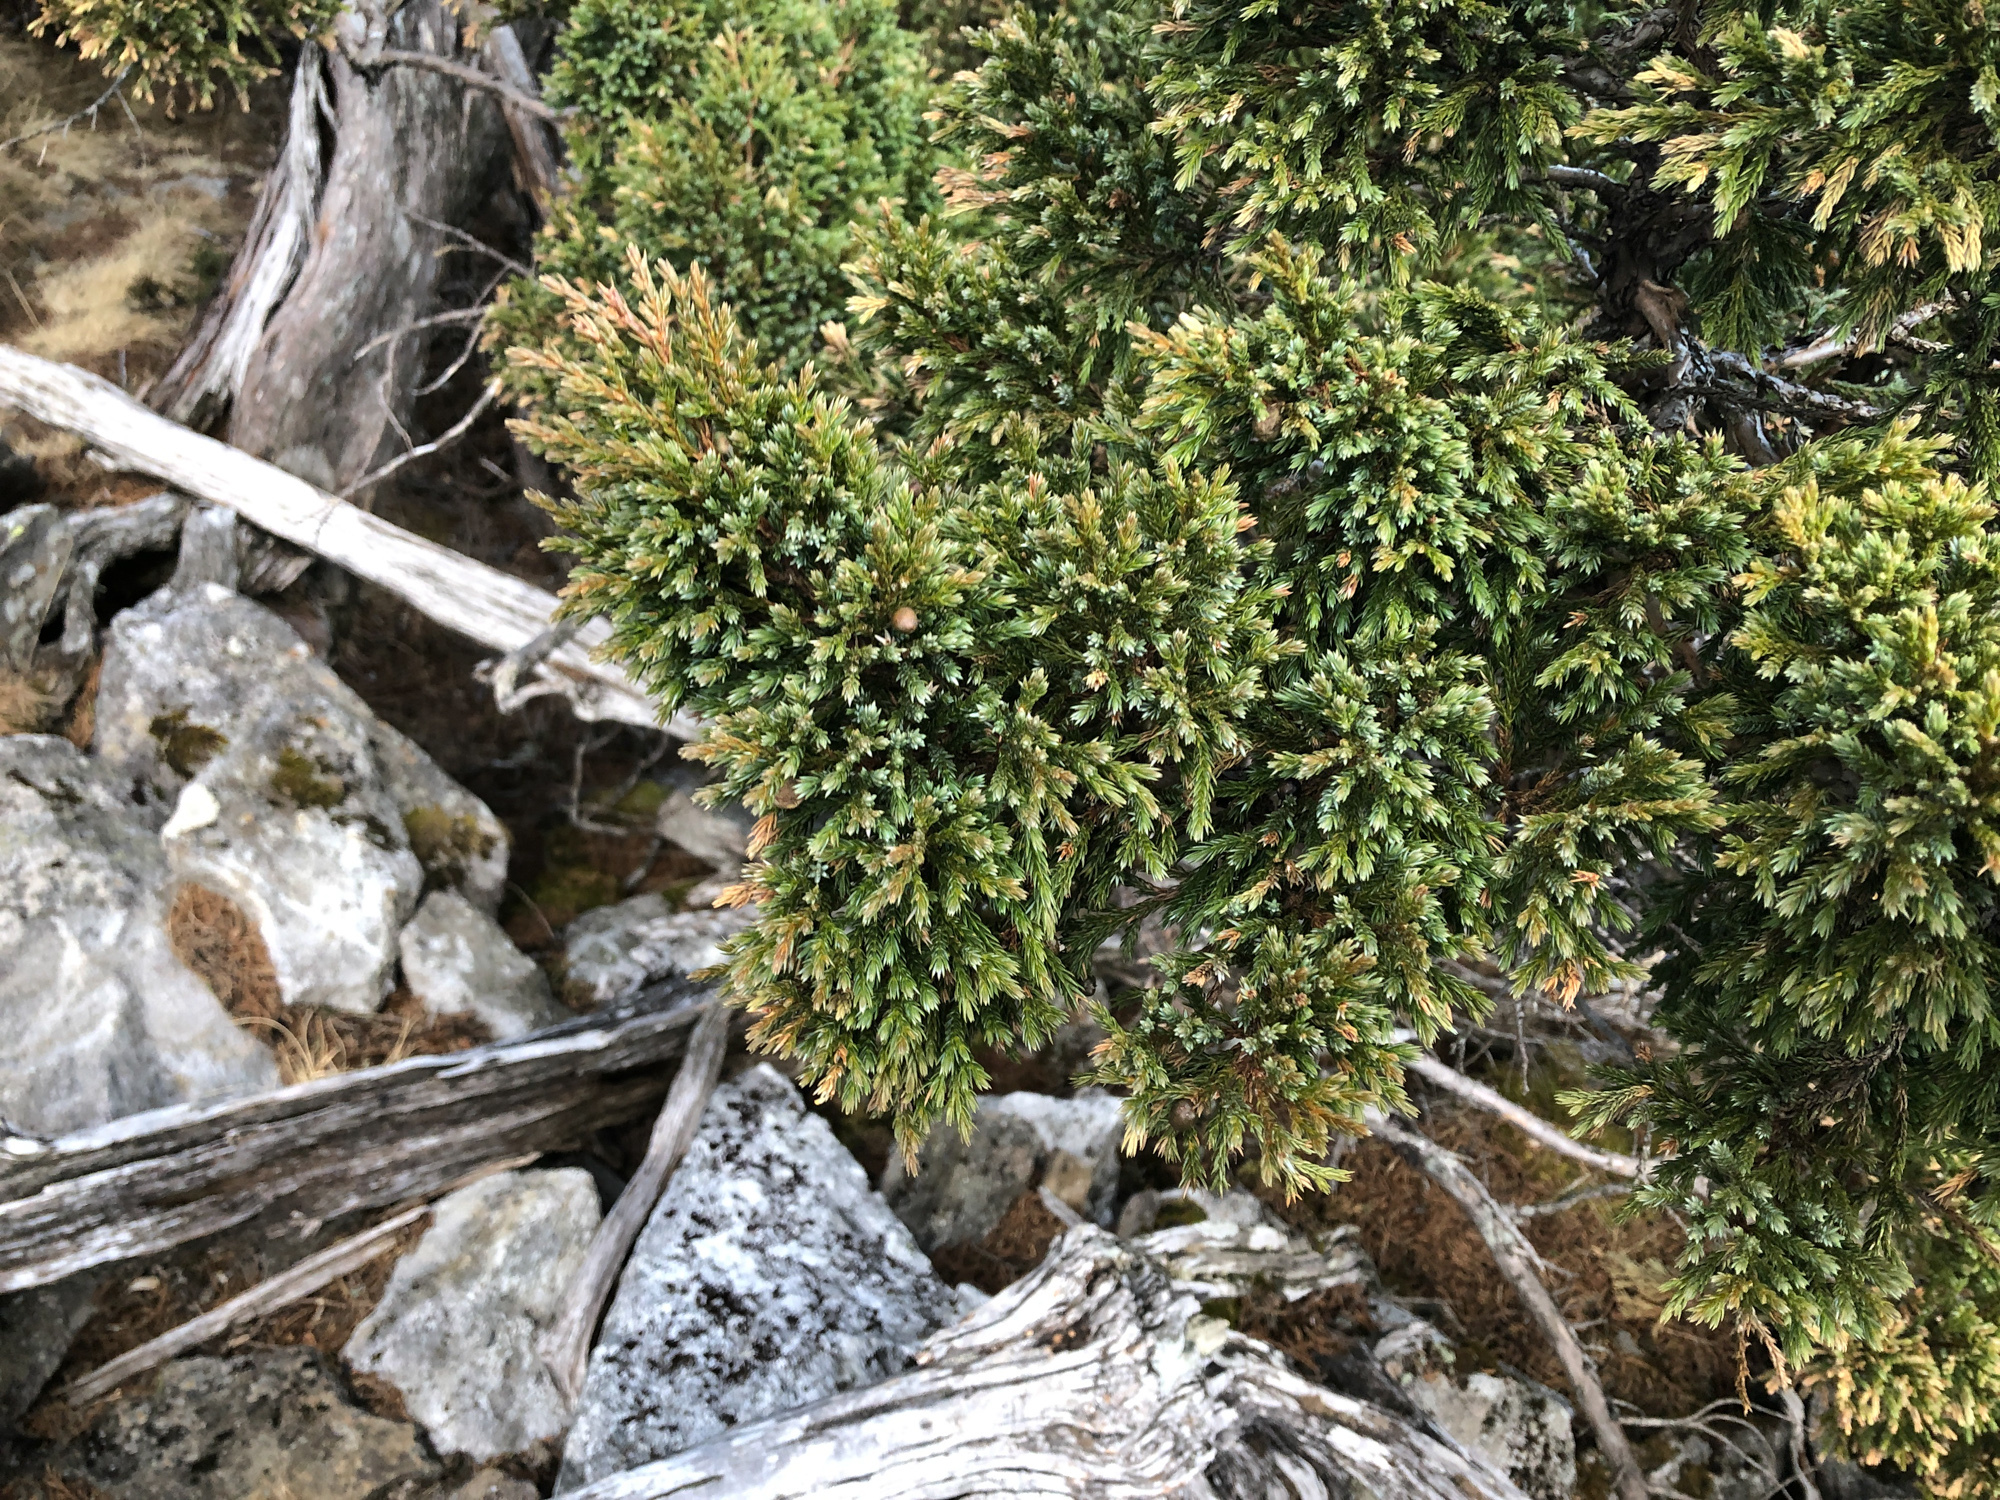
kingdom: Plantae
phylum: Tracheophyta
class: Pinopsida
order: Pinales
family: Cupressaceae
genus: Juniperus
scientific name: Juniperus squamata
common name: Flaky juniper
